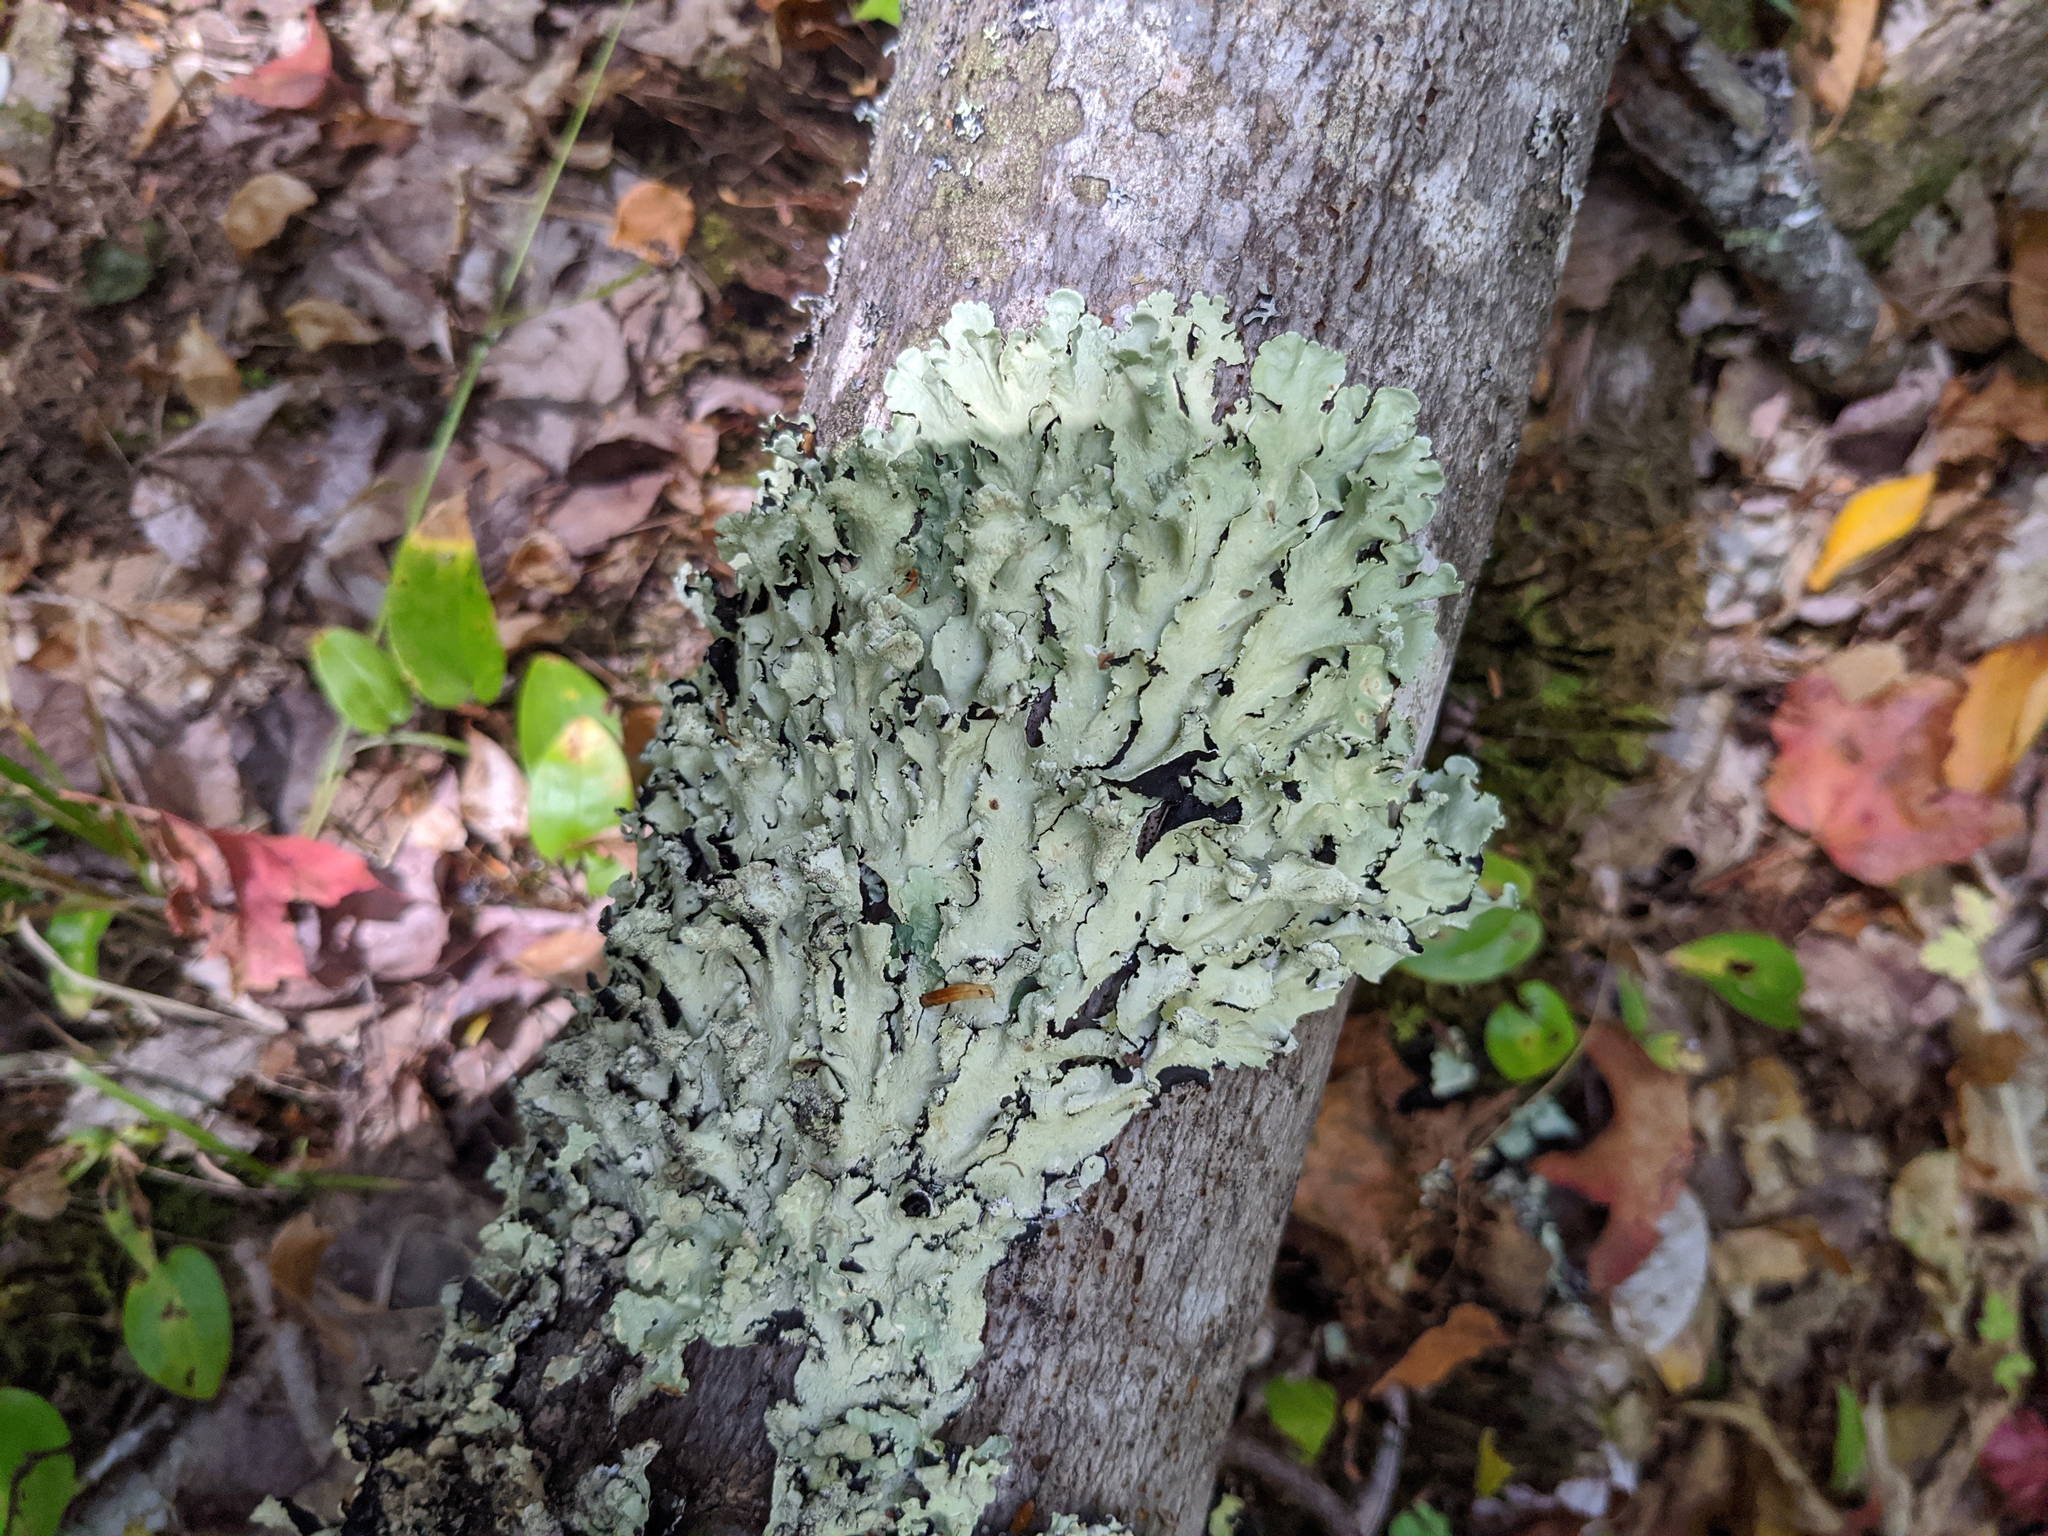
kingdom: Fungi
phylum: Ascomycota
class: Lecanoromycetes
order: Lecanorales
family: Parmeliaceae
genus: Flavoparmelia
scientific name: Flavoparmelia caperata
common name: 40-mile per hour lichen
